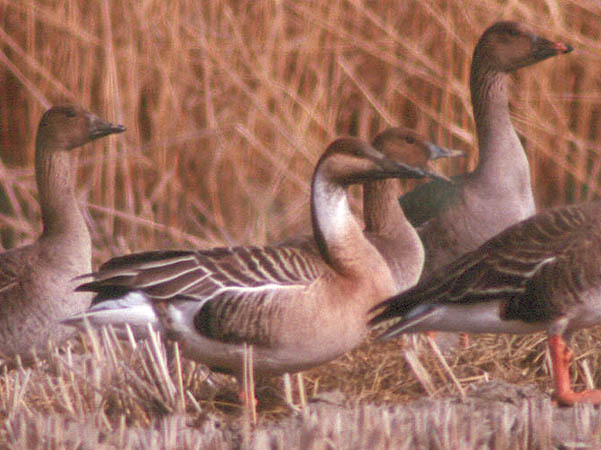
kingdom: Animalia
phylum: Chordata
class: Aves
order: Anseriformes
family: Anatidae
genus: Anser
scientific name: Anser cygnoides
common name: Swan goose
